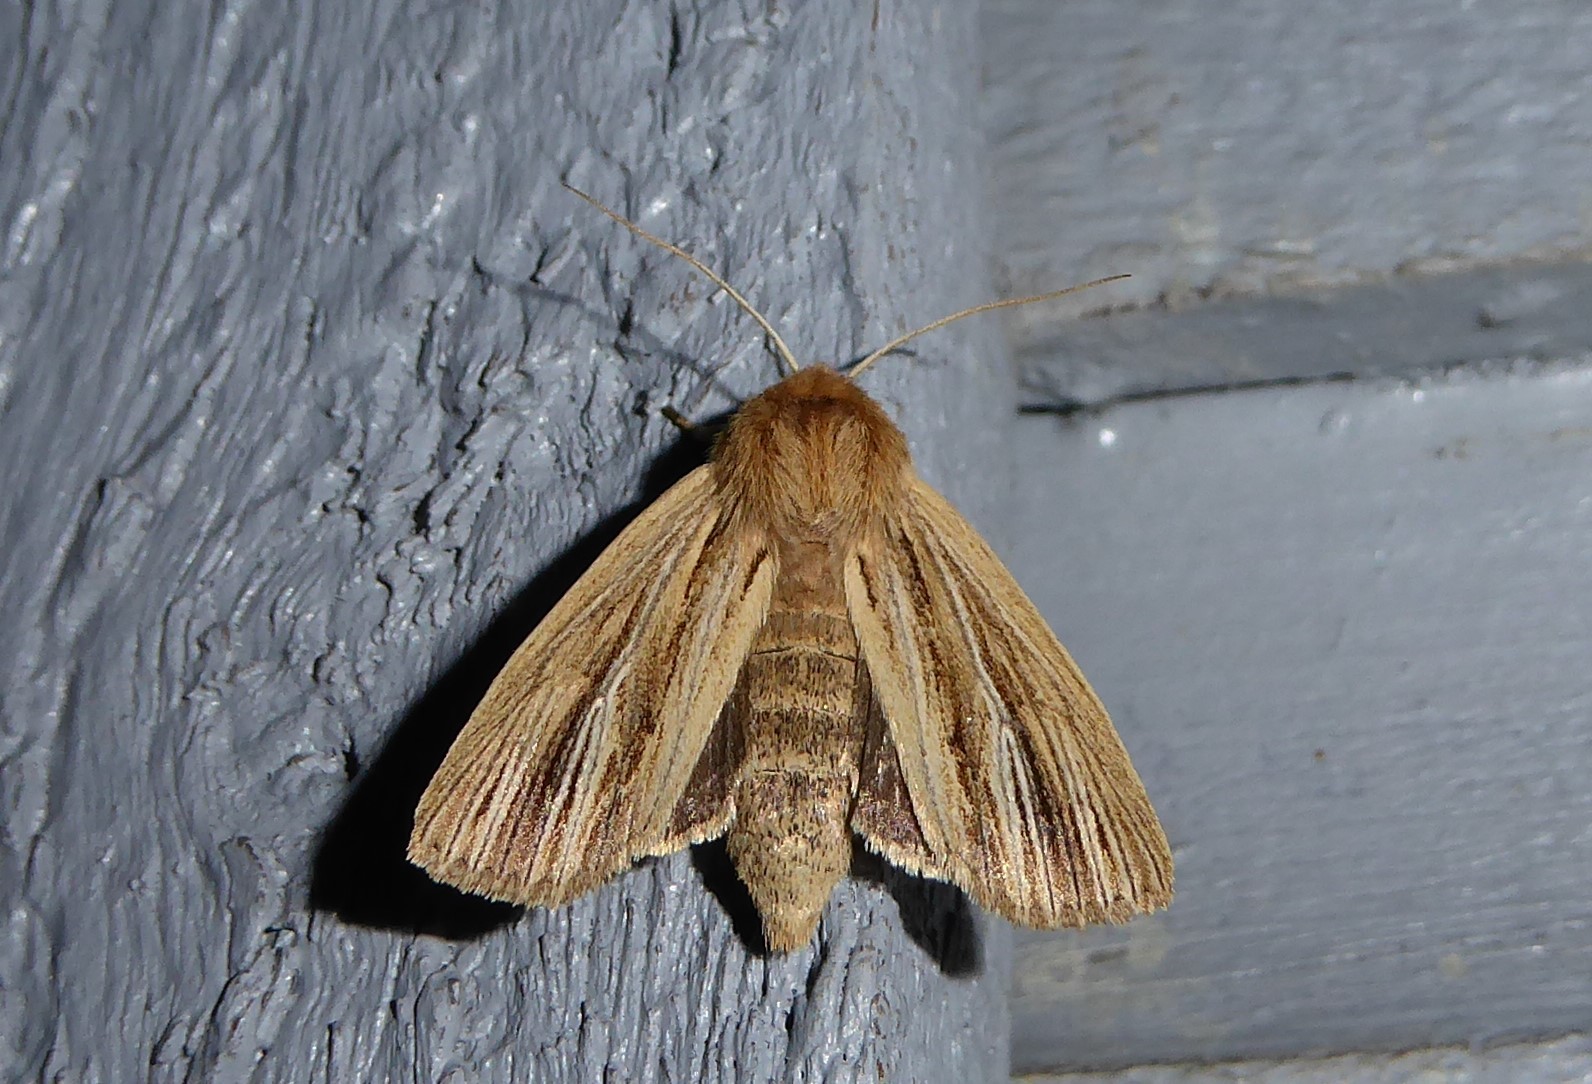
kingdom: Animalia
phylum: Arthropoda
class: Insecta
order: Lepidoptera
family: Noctuidae
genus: Ichneutica
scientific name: Ichneutica arotis
